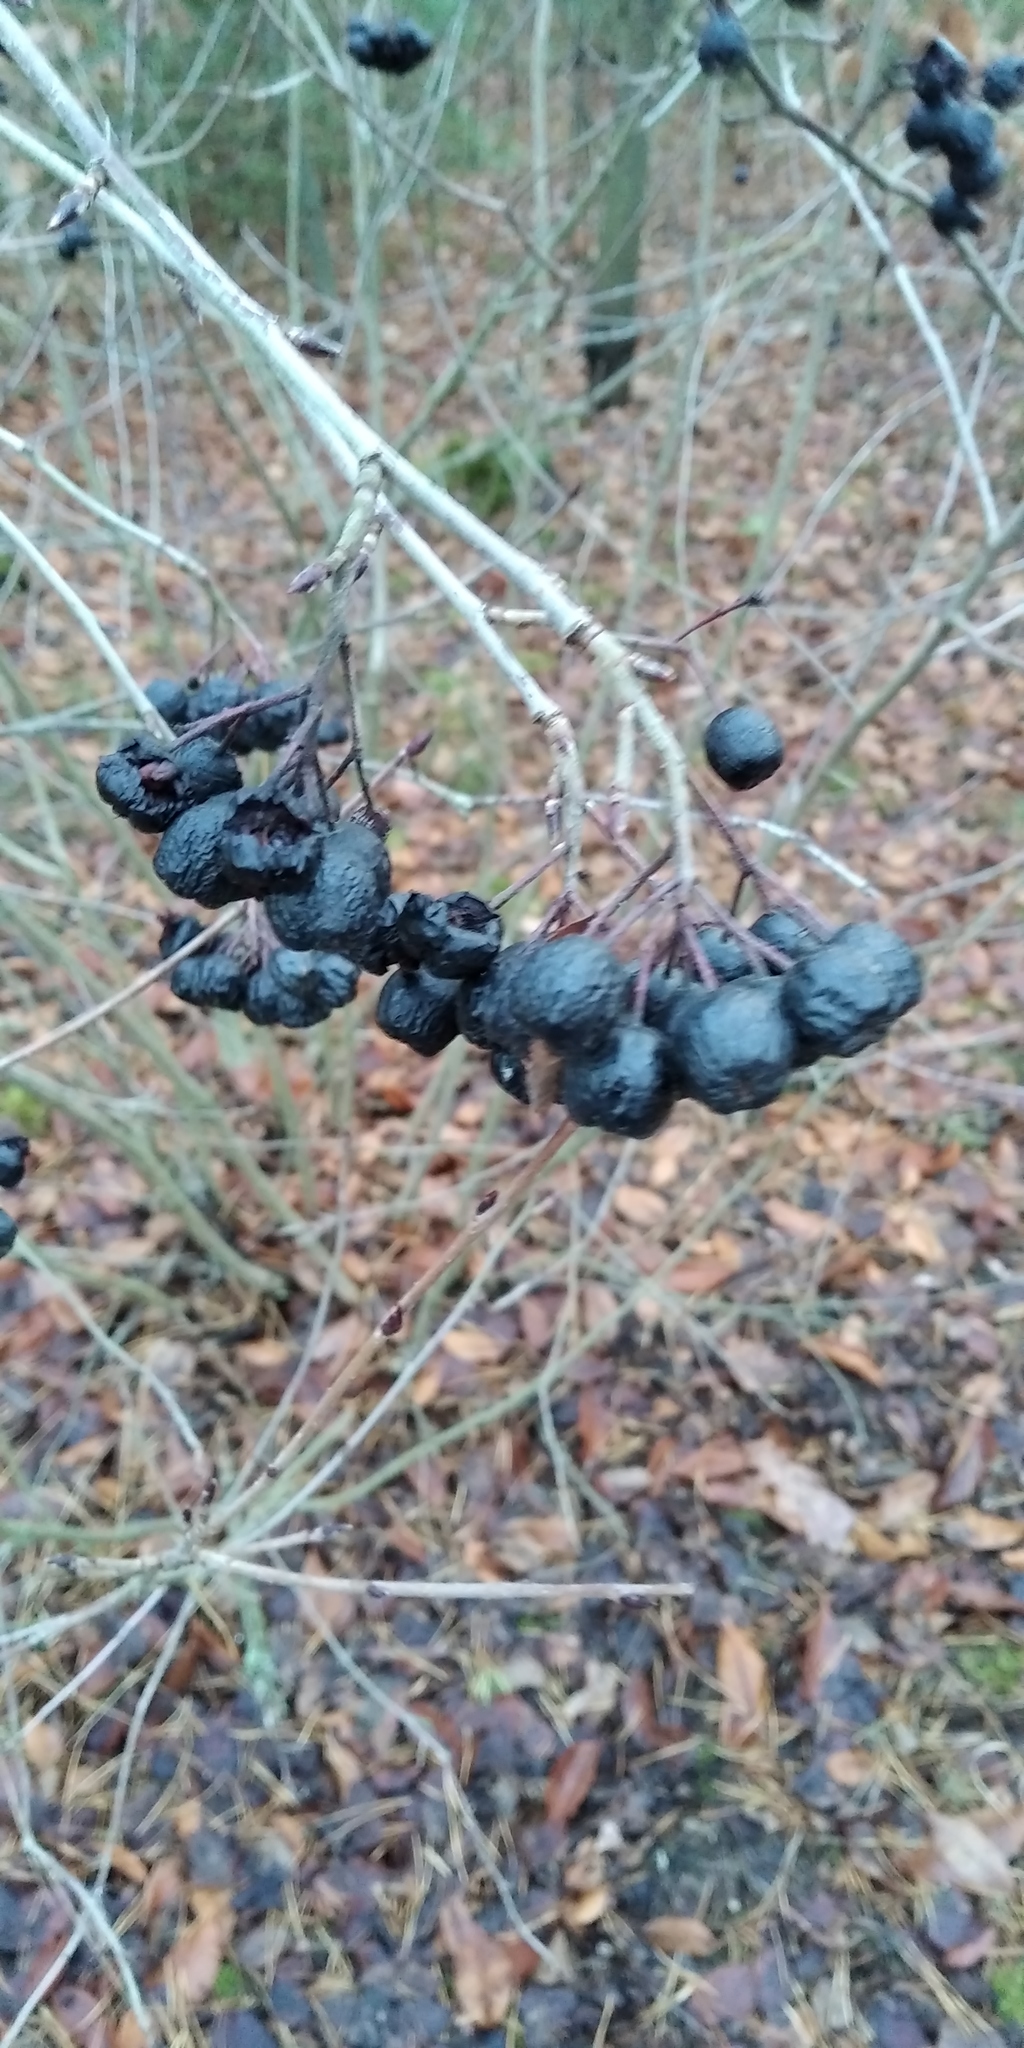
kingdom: Plantae
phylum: Tracheophyta
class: Magnoliopsida
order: Rosales
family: Rosaceae
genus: Sorbaronia
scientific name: Sorbaronia arsenii
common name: Arsène's mountain-ash
